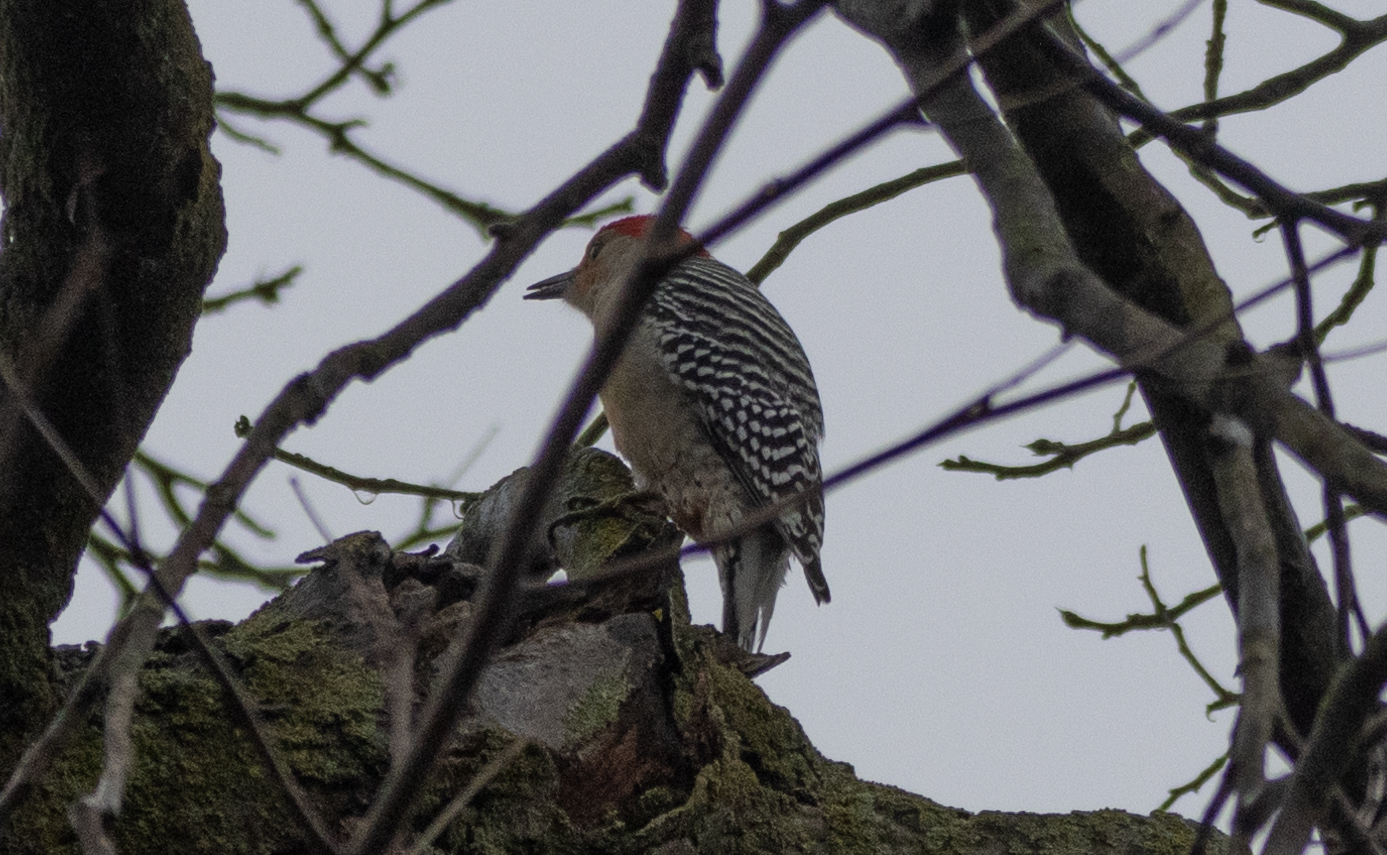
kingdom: Animalia
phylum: Chordata
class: Aves
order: Piciformes
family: Picidae
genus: Melanerpes
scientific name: Melanerpes carolinus
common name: Red-bellied woodpecker
